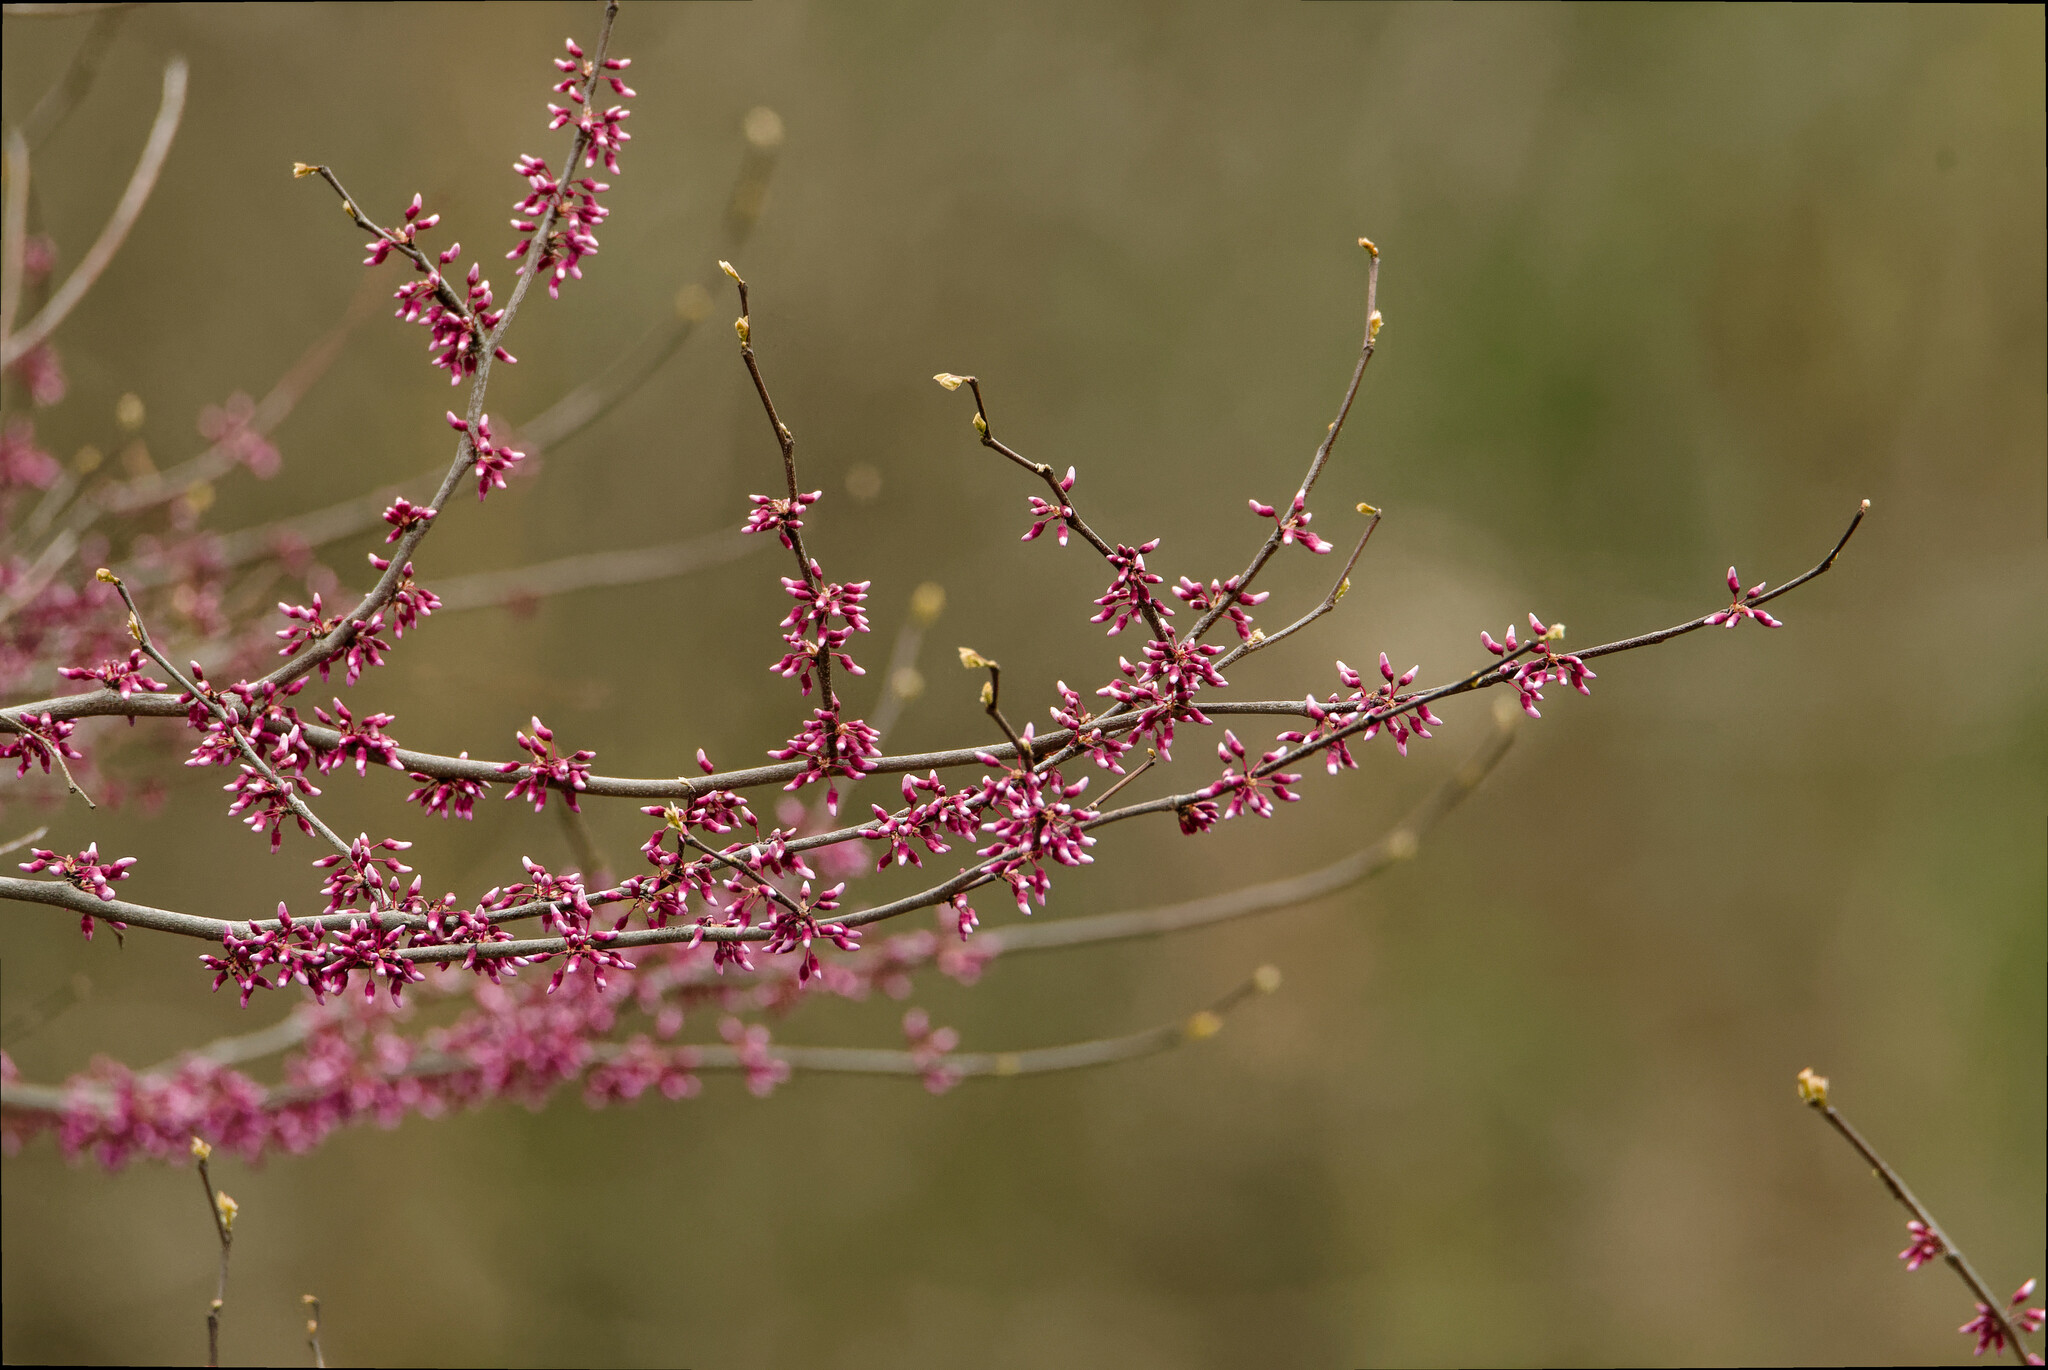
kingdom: Plantae
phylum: Tracheophyta
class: Magnoliopsida
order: Fabales
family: Fabaceae
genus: Cercis
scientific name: Cercis canadensis
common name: Eastern redbud
